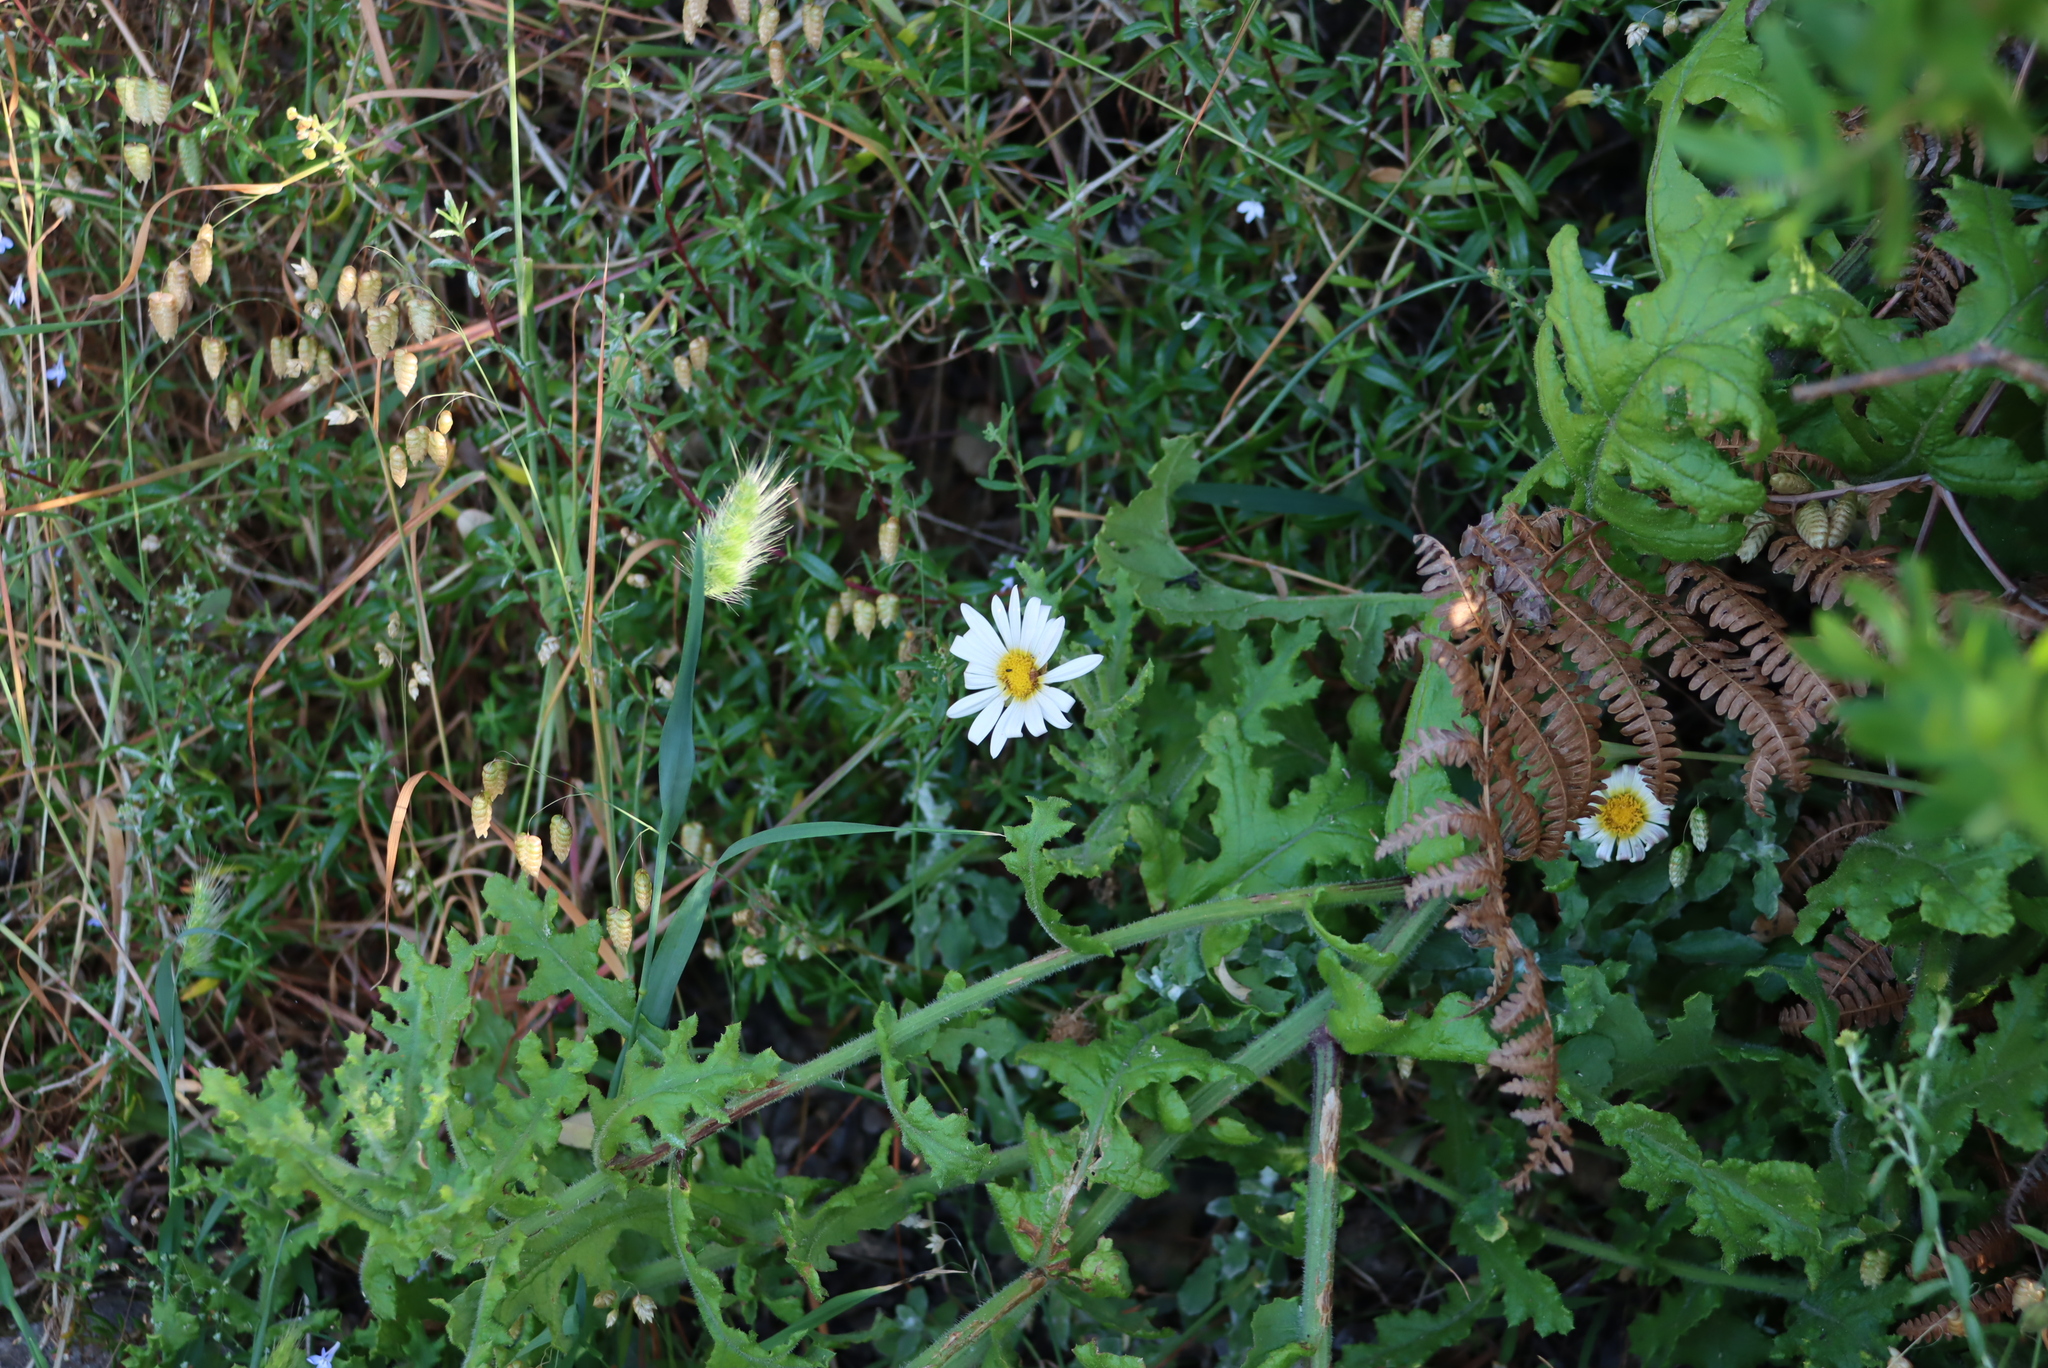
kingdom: Plantae
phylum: Tracheophyta
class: Magnoliopsida
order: Asterales
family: Asteraceae
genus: Arctotis
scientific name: Arctotis aspera
